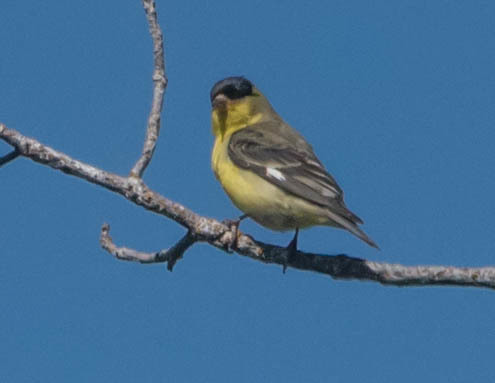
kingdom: Animalia
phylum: Chordata
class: Aves
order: Passeriformes
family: Fringillidae
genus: Spinus
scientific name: Spinus psaltria
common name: Lesser goldfinch
